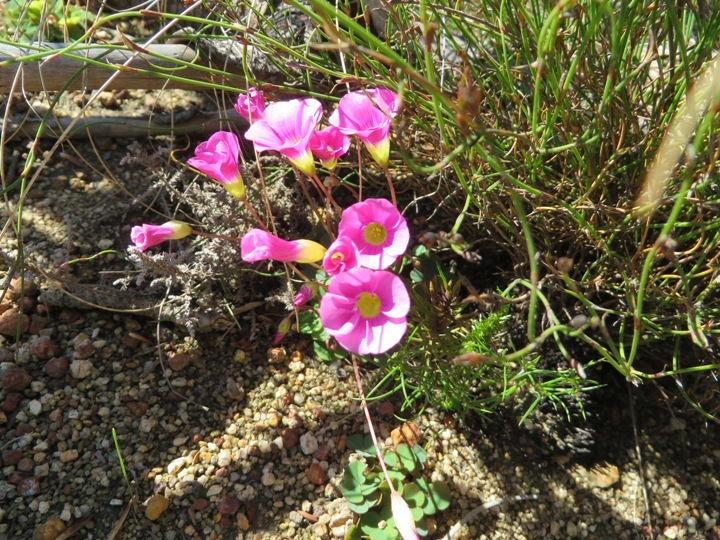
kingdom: Plantae
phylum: Tracheophyta
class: Magnoliopsida
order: Oxalidales
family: Oxalidaceae
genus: Oxalis
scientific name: Oxalis commutata
